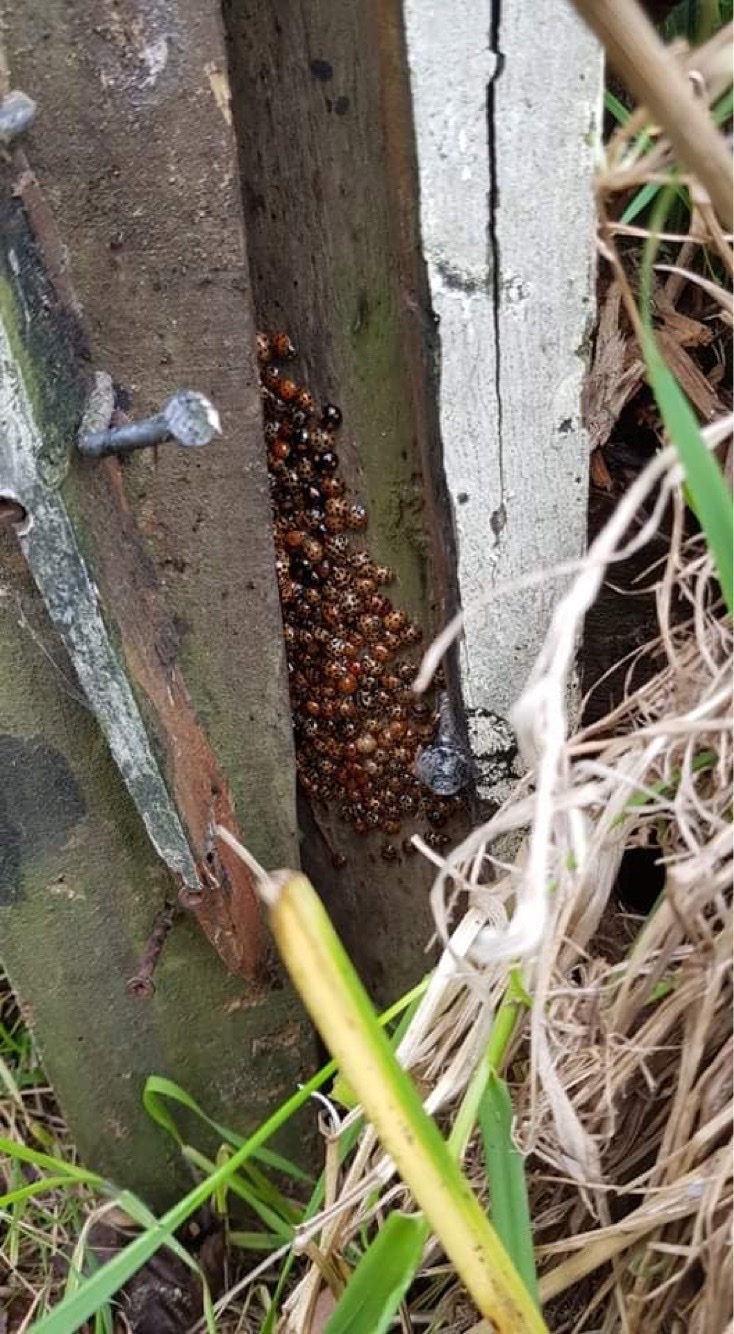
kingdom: Animalia
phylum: Arthropoda
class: Insecta
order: Coleoptera
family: Coccinellidae
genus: Harmonia
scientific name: Harmonia axyridis
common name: Harlequin ladybird
